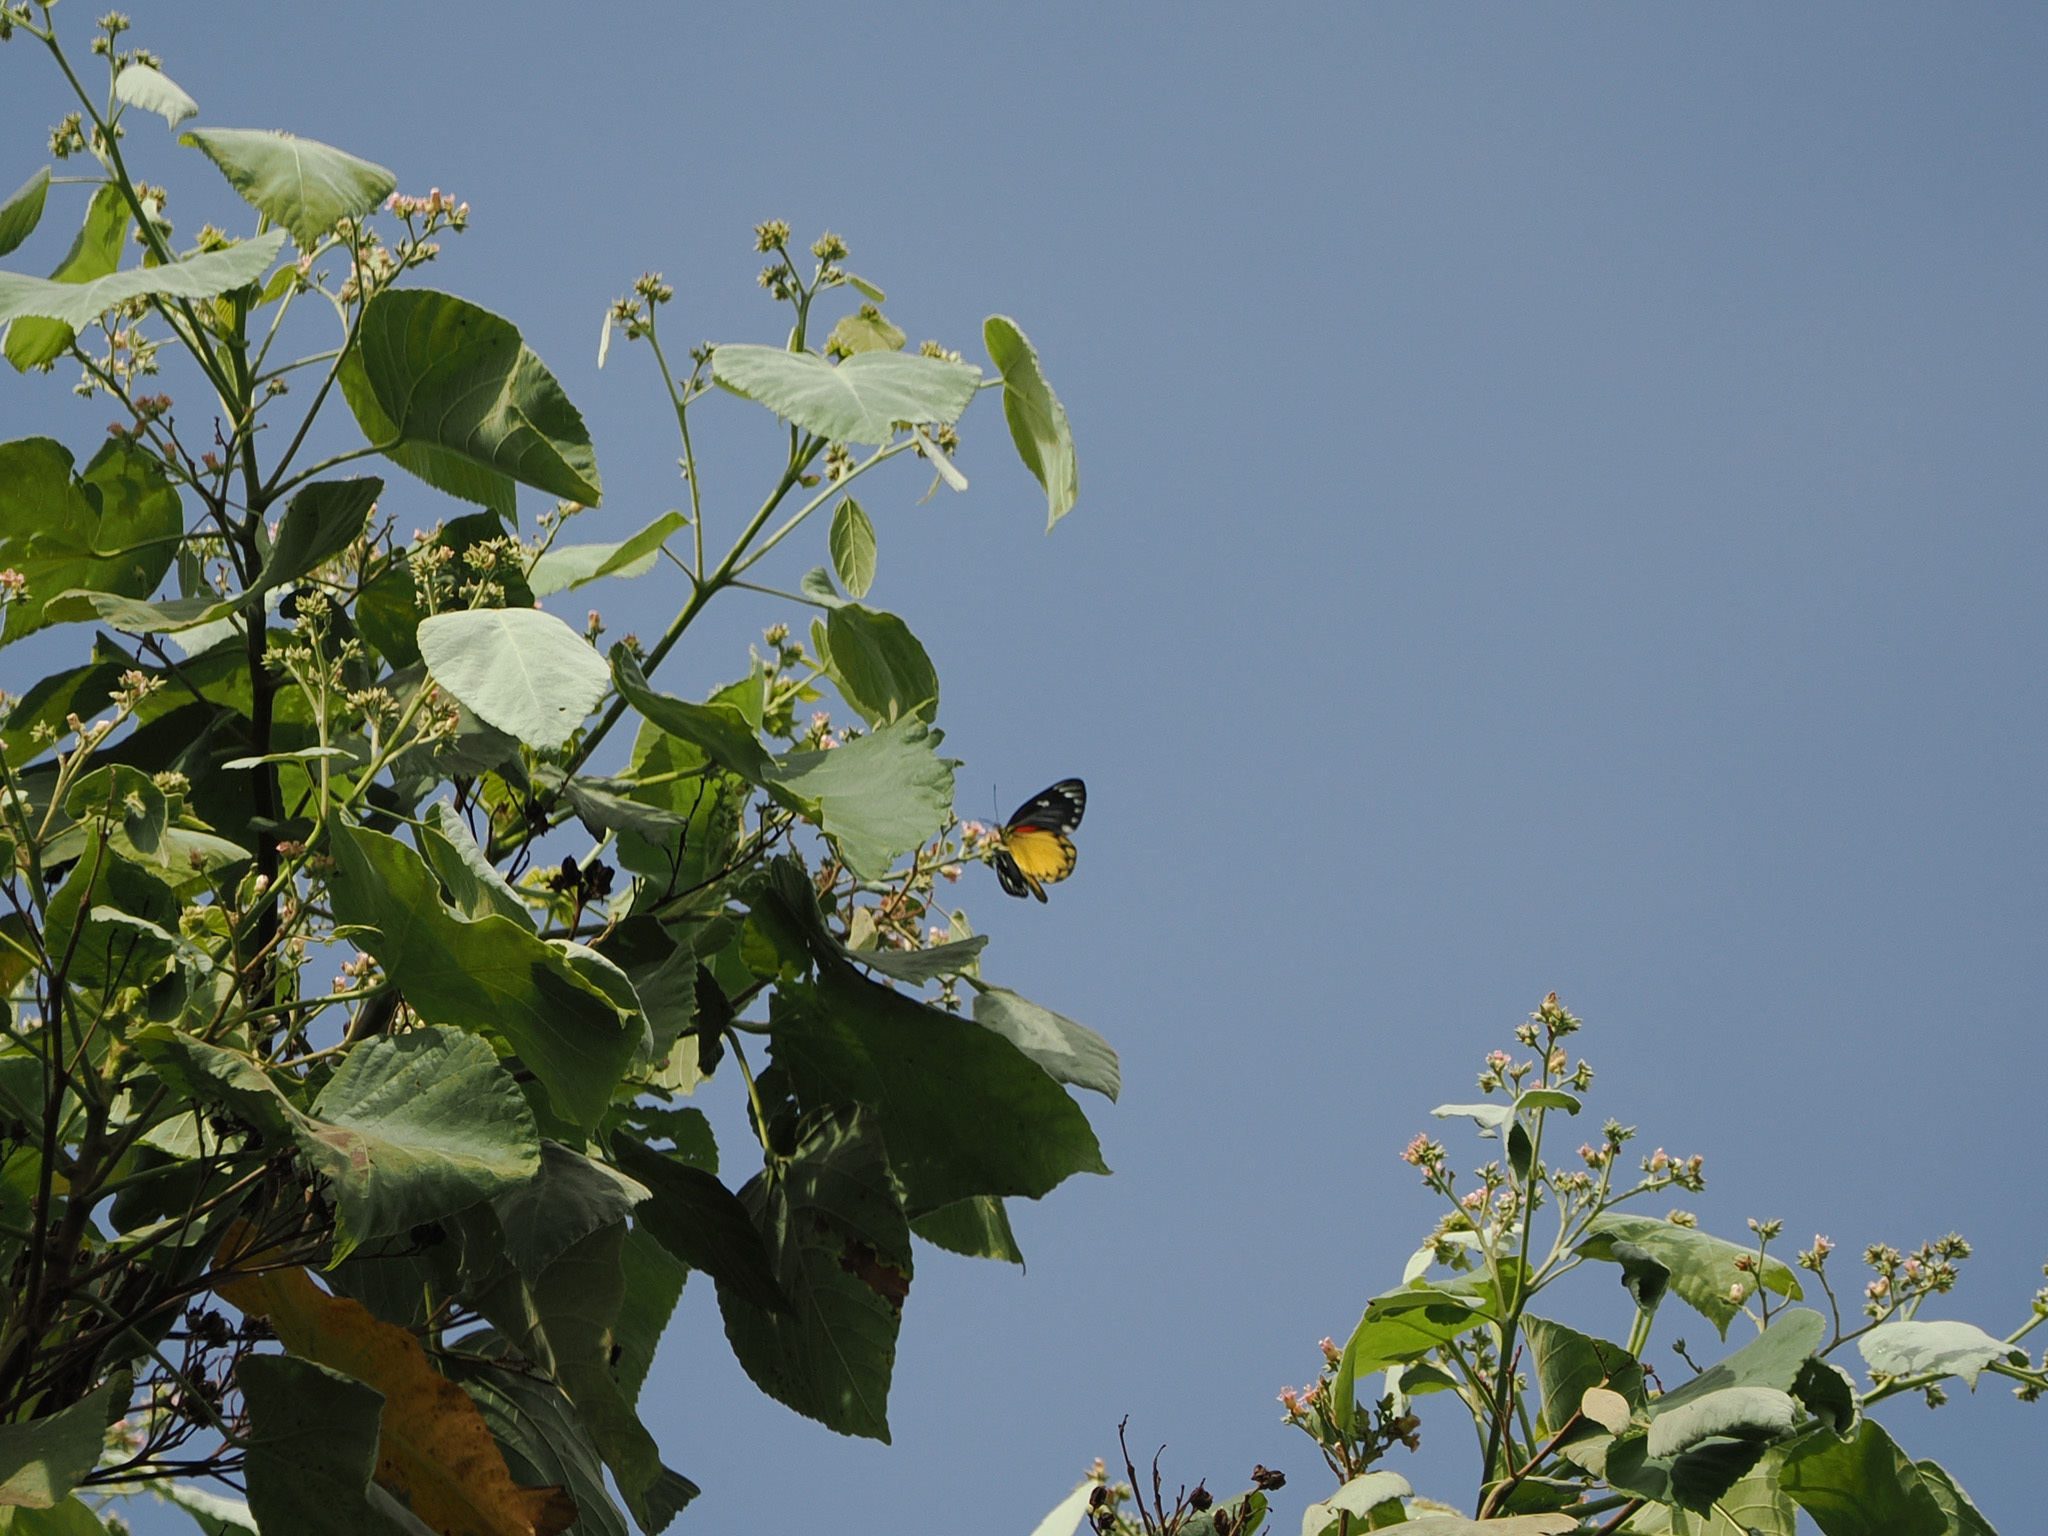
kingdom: Animalia
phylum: Arthropoda
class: Insecta
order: Lepidoptera
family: Pieridae
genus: Delias
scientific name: Delias descombesi
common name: Red-spot jezebel
